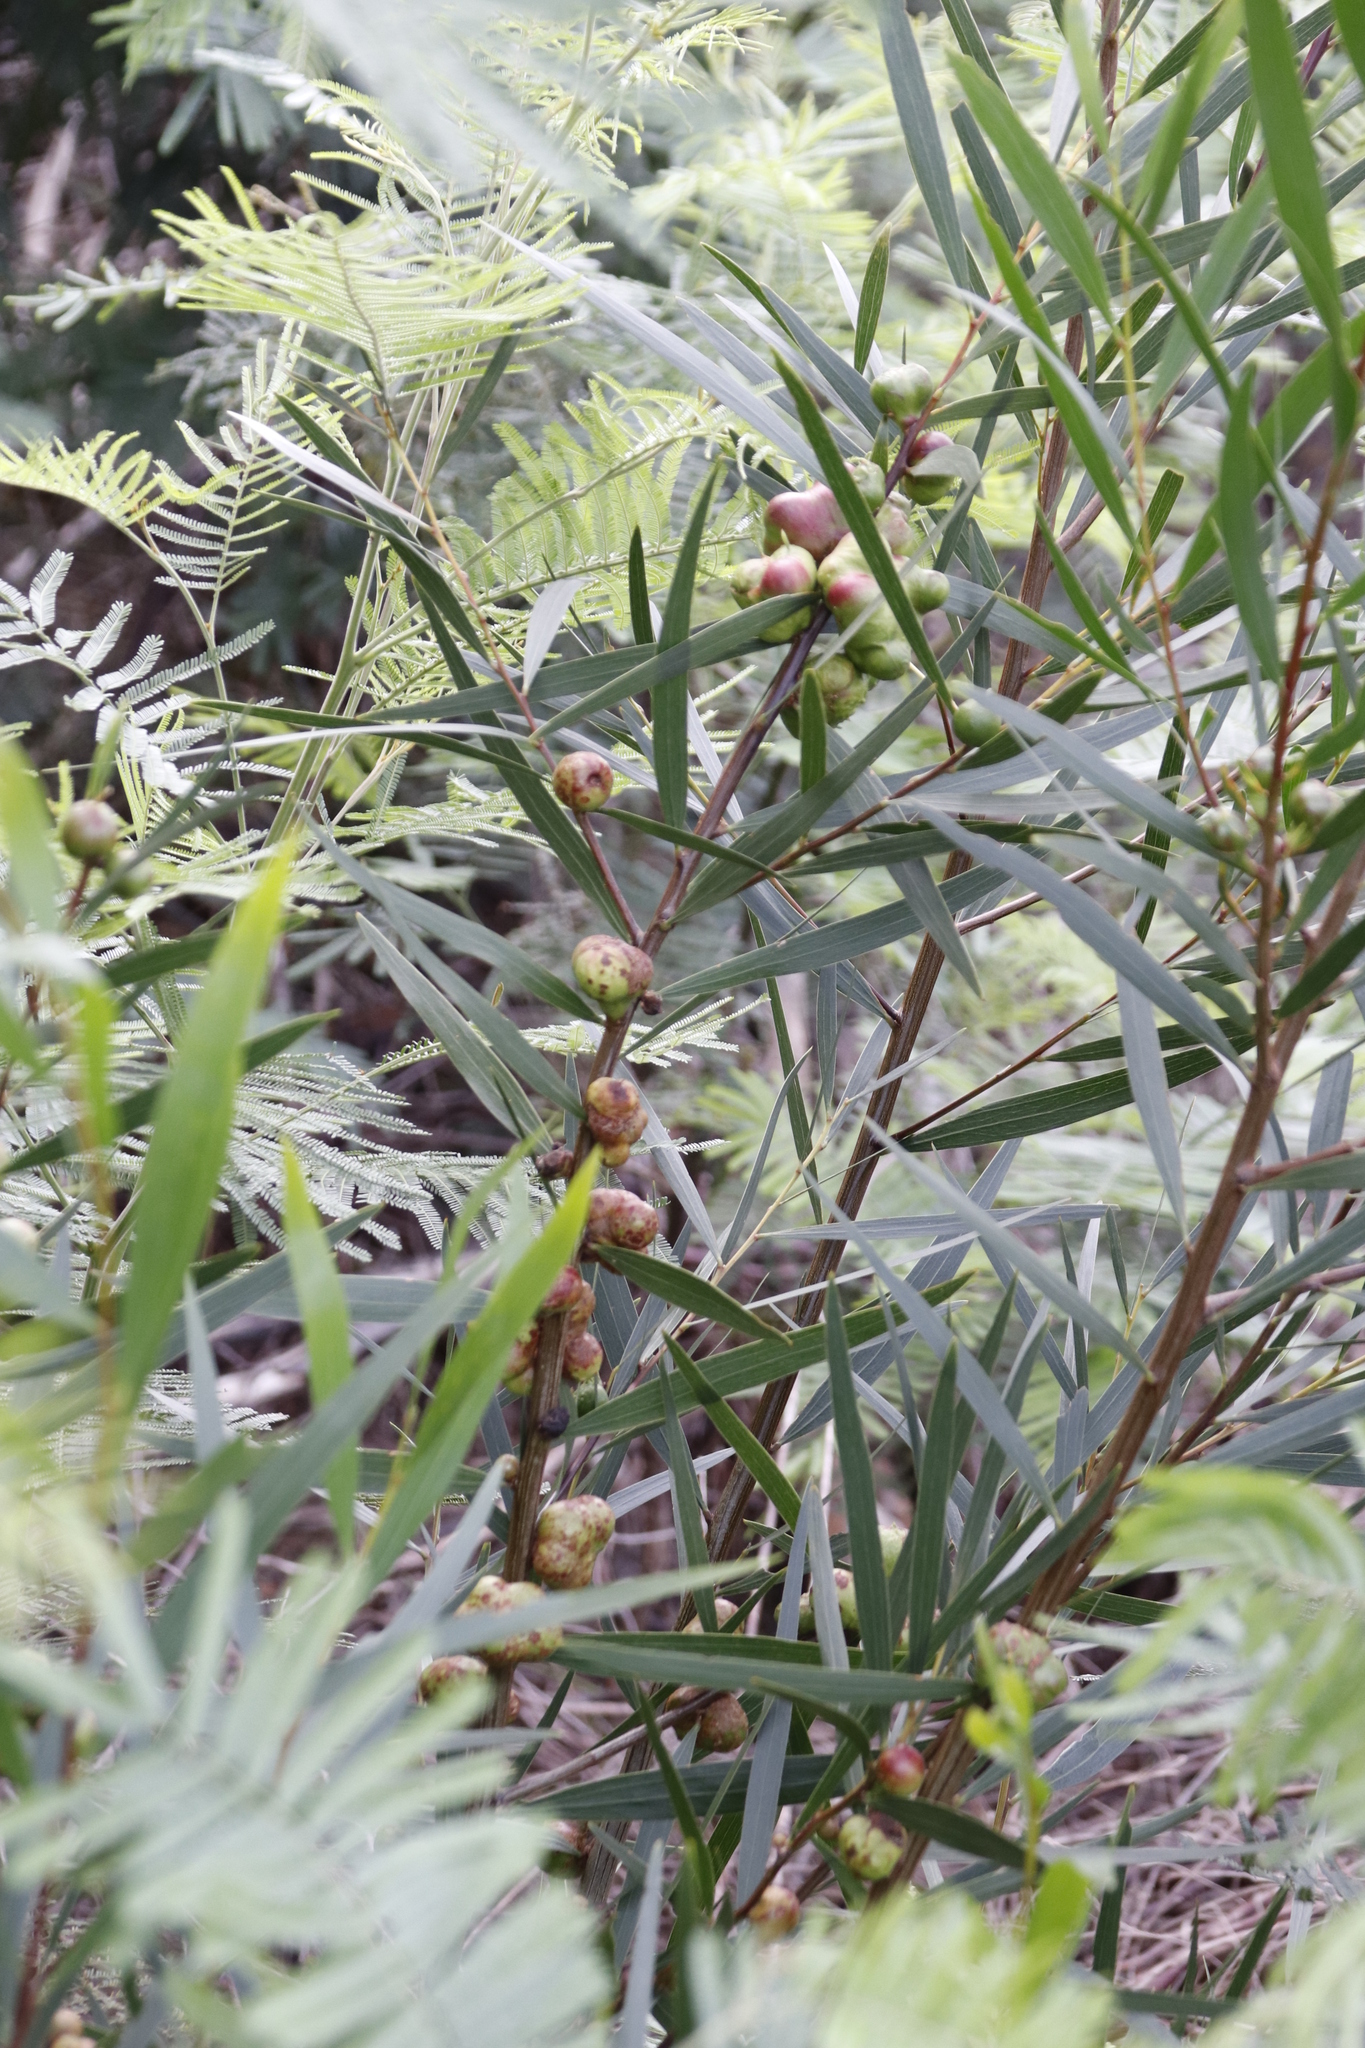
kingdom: Animalia
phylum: Arthropoda
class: Insecta
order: Hymenoptera
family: Pteromalidae
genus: Trichilogaster
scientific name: Trichilogaster acaciaelongifoliae
